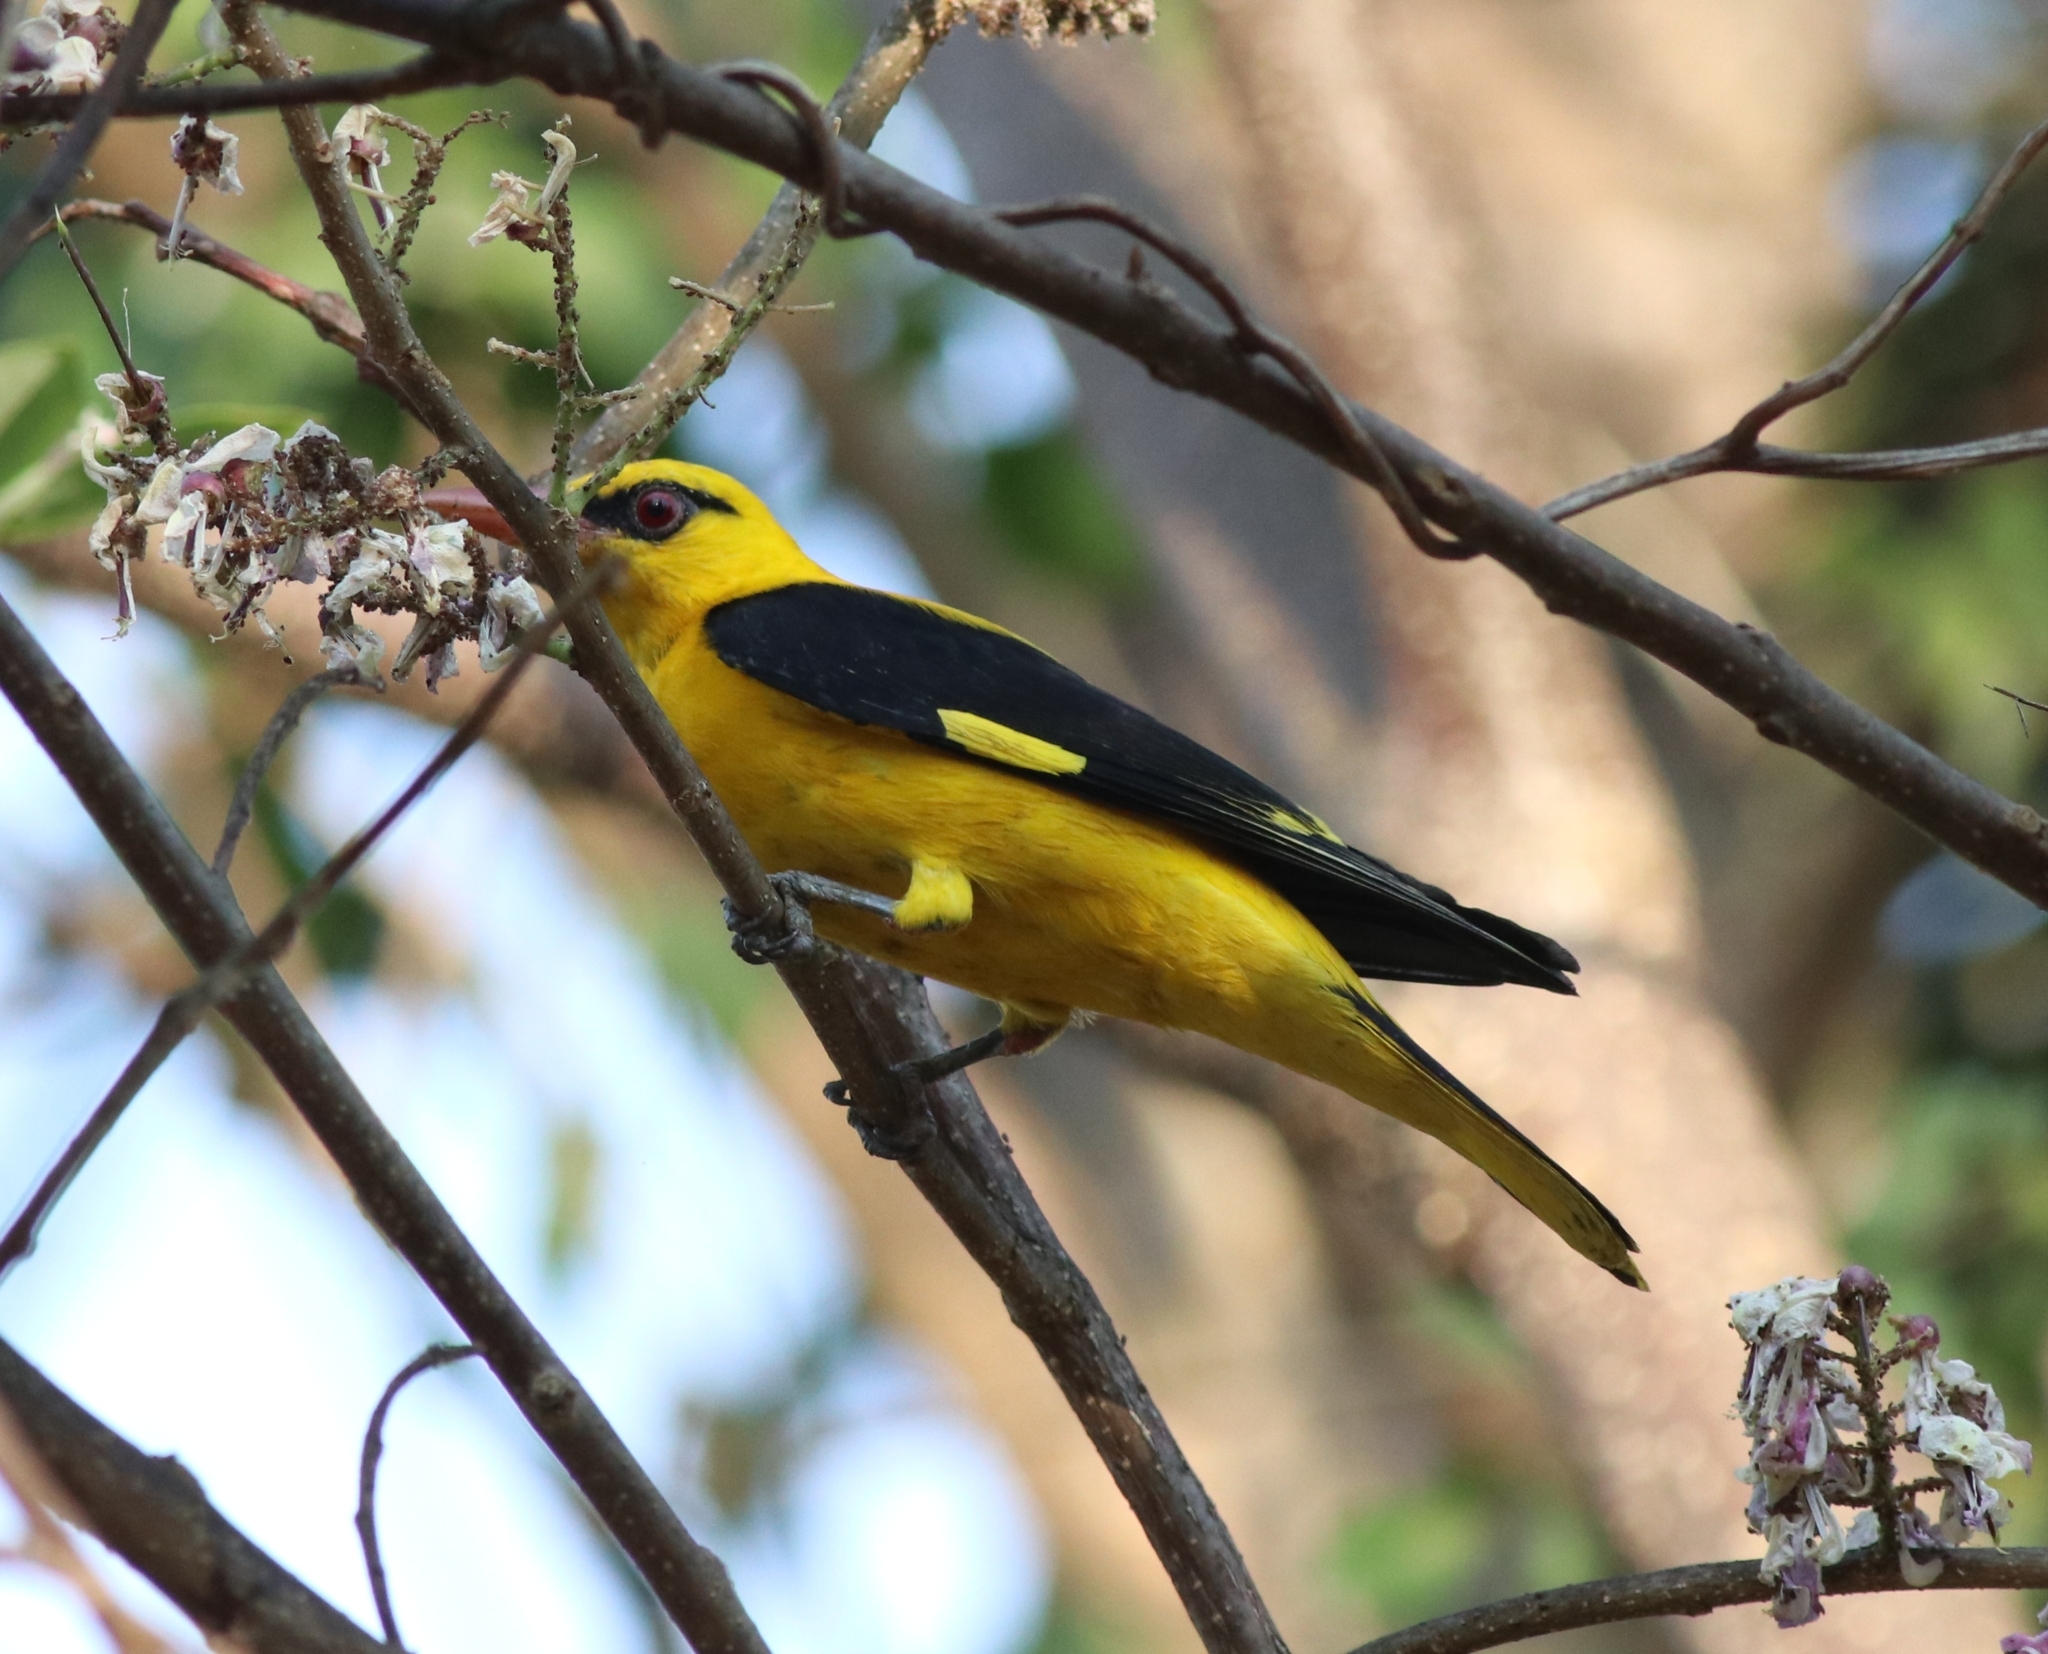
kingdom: Animalia
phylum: Chordata
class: Aves
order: Passeriformes
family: Oriolidae
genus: Oriolus
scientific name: Oriolus kundoo
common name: Indian golden oriole
